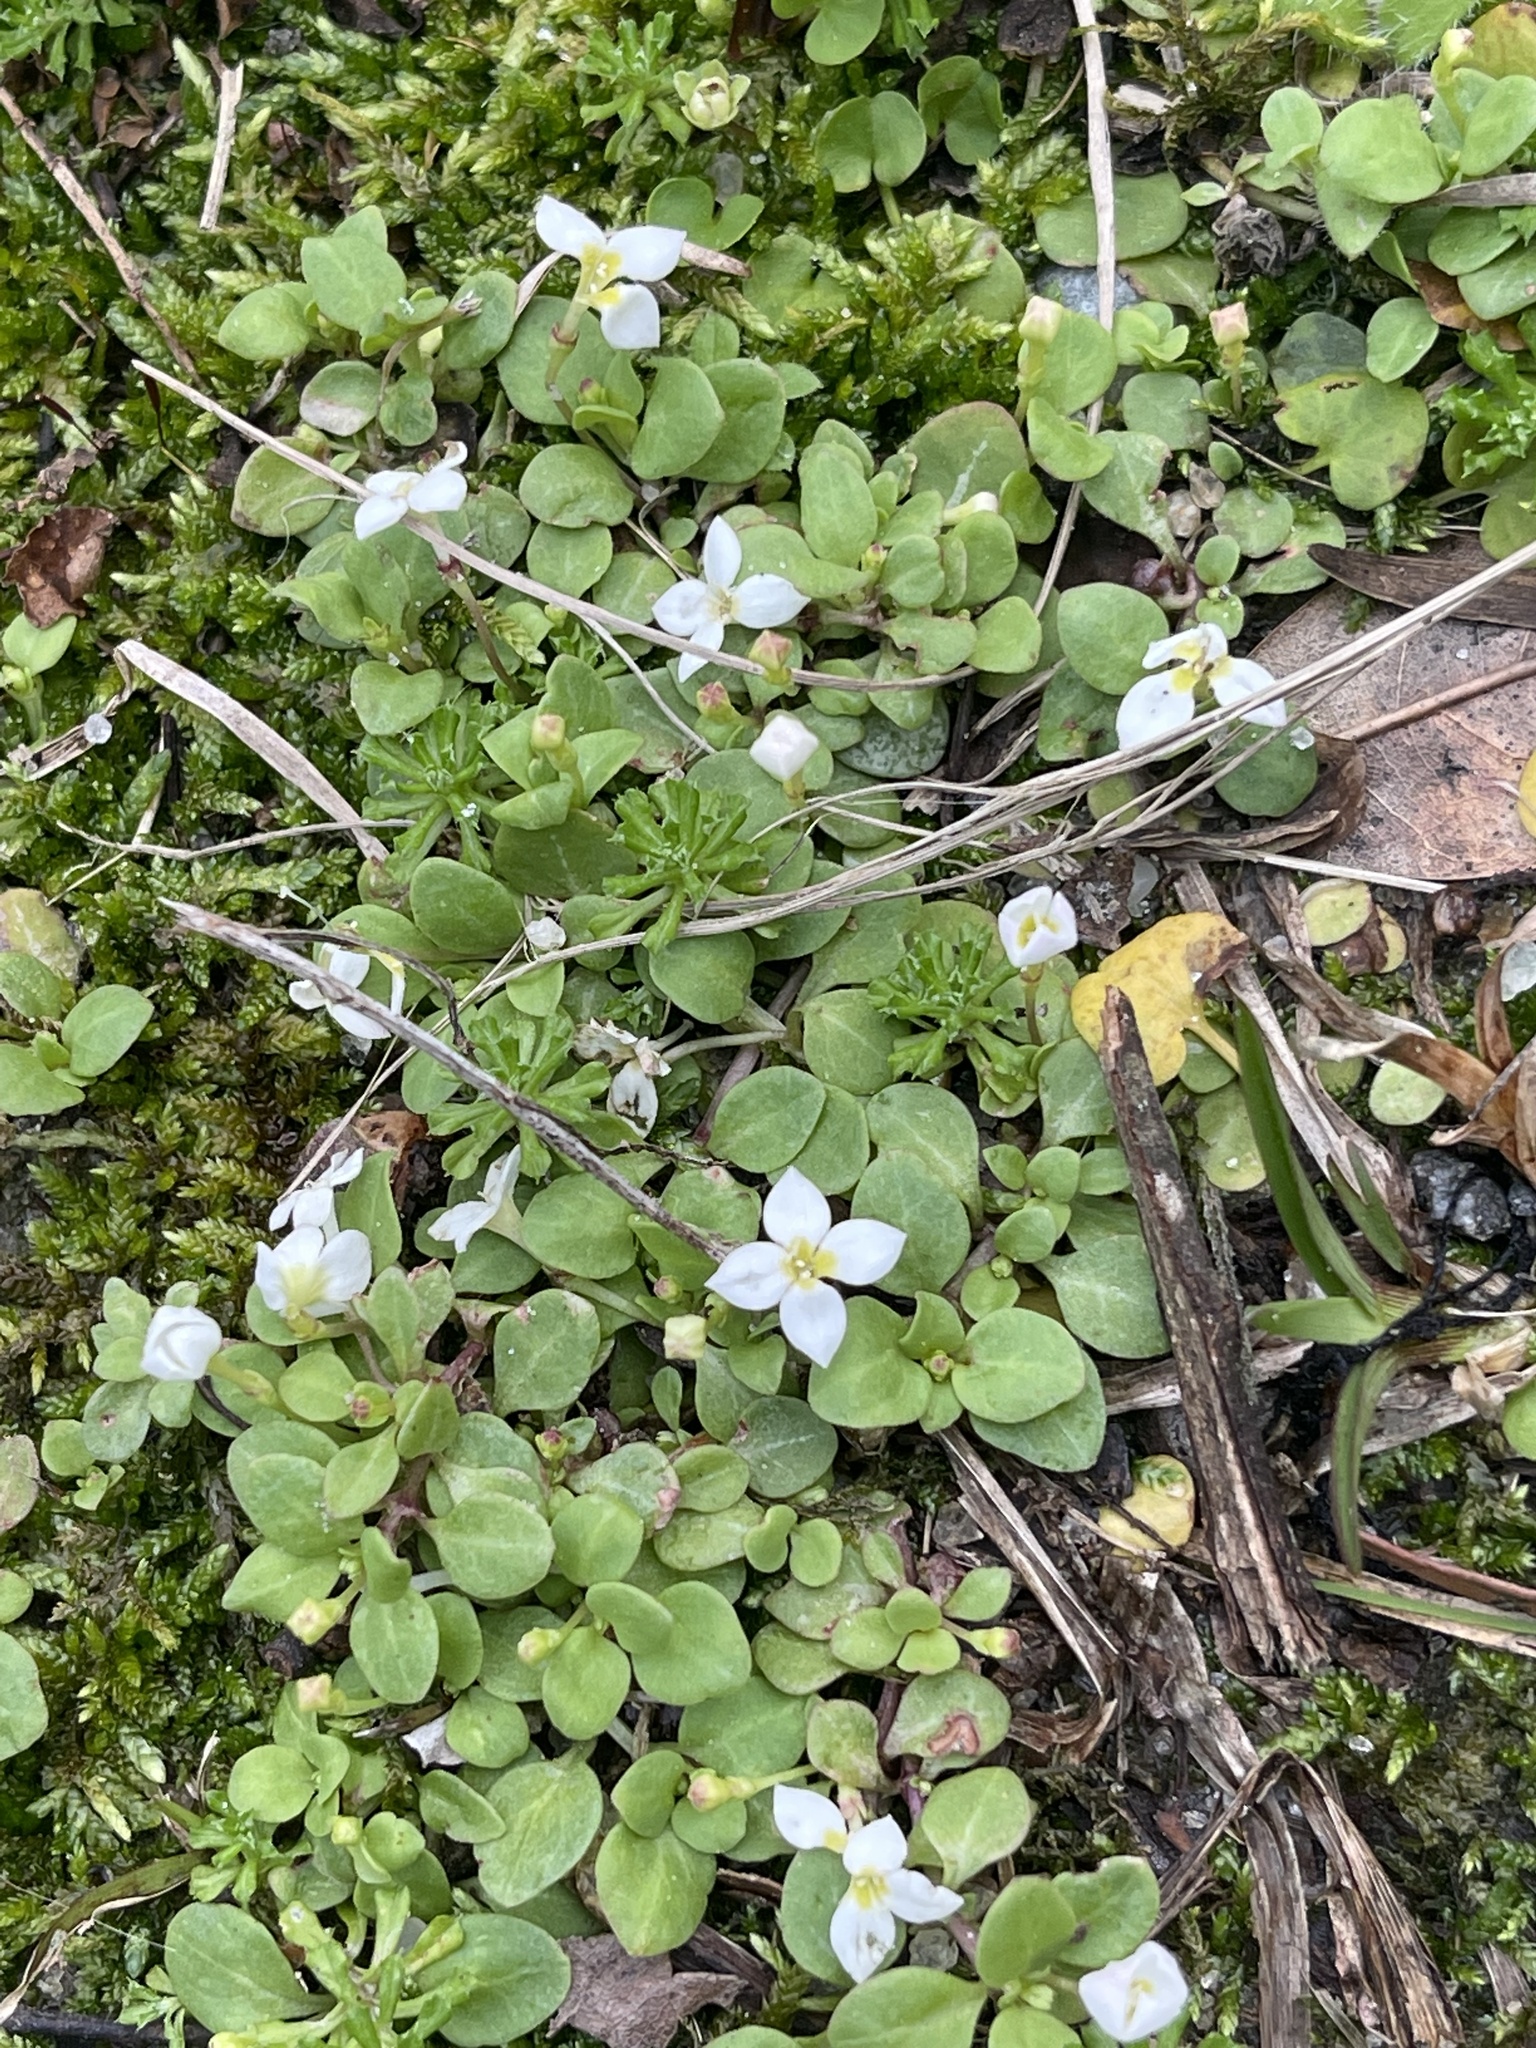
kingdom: Plantae
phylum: Tracheophyta
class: Magnoliopsida
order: Gentianales
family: Rubiaceae
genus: Houstonia
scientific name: Houstonia procumbens
